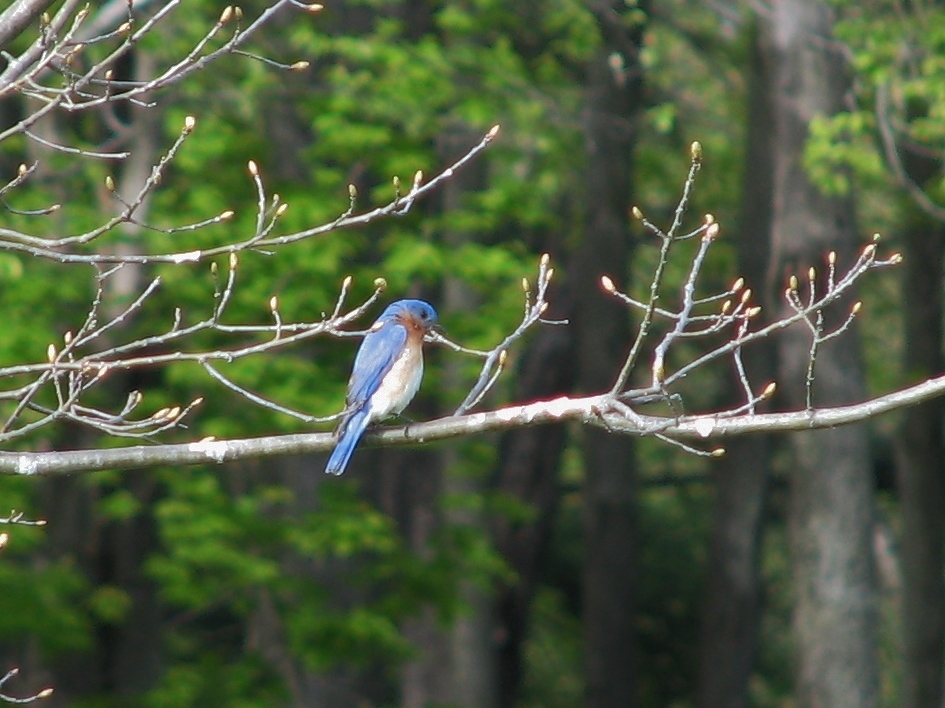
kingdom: Animalia
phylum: Chordata
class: Aves
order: Passeriformes
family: Turdidae
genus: Sialia
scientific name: Sialia sialis
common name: Eastern bluebird
